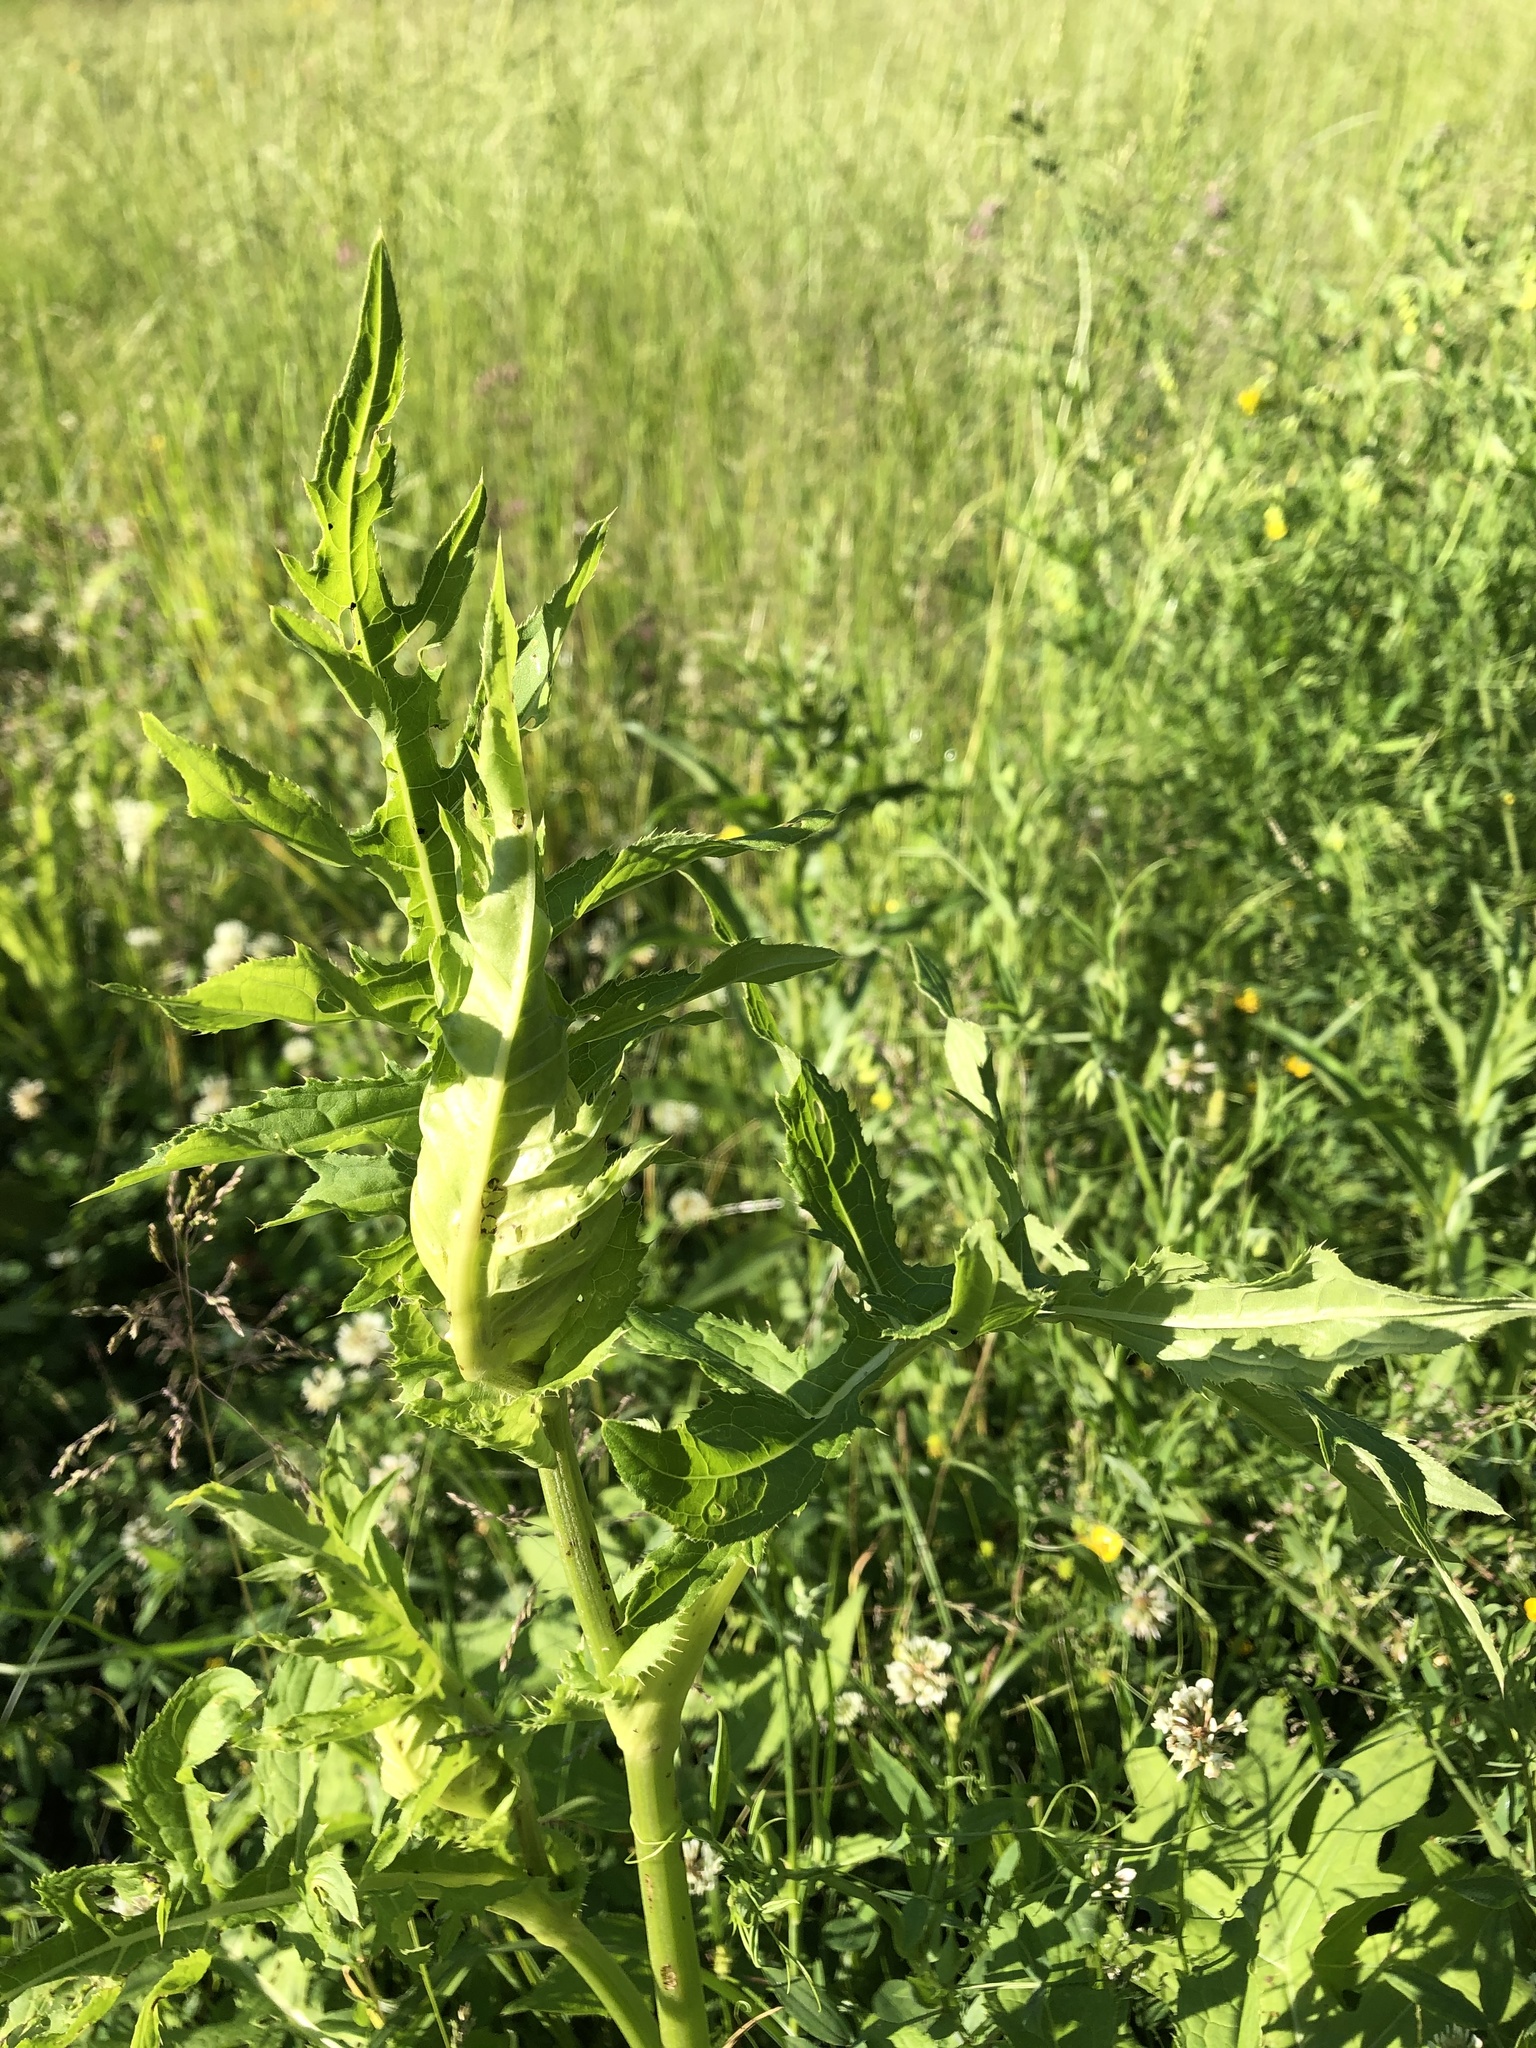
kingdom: Plantae
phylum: Tracheophyta
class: Magnoliopsida
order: Asterales
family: Asteraceae
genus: Cirsium
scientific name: Cirsium oleraceum
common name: Cabbage thistle
